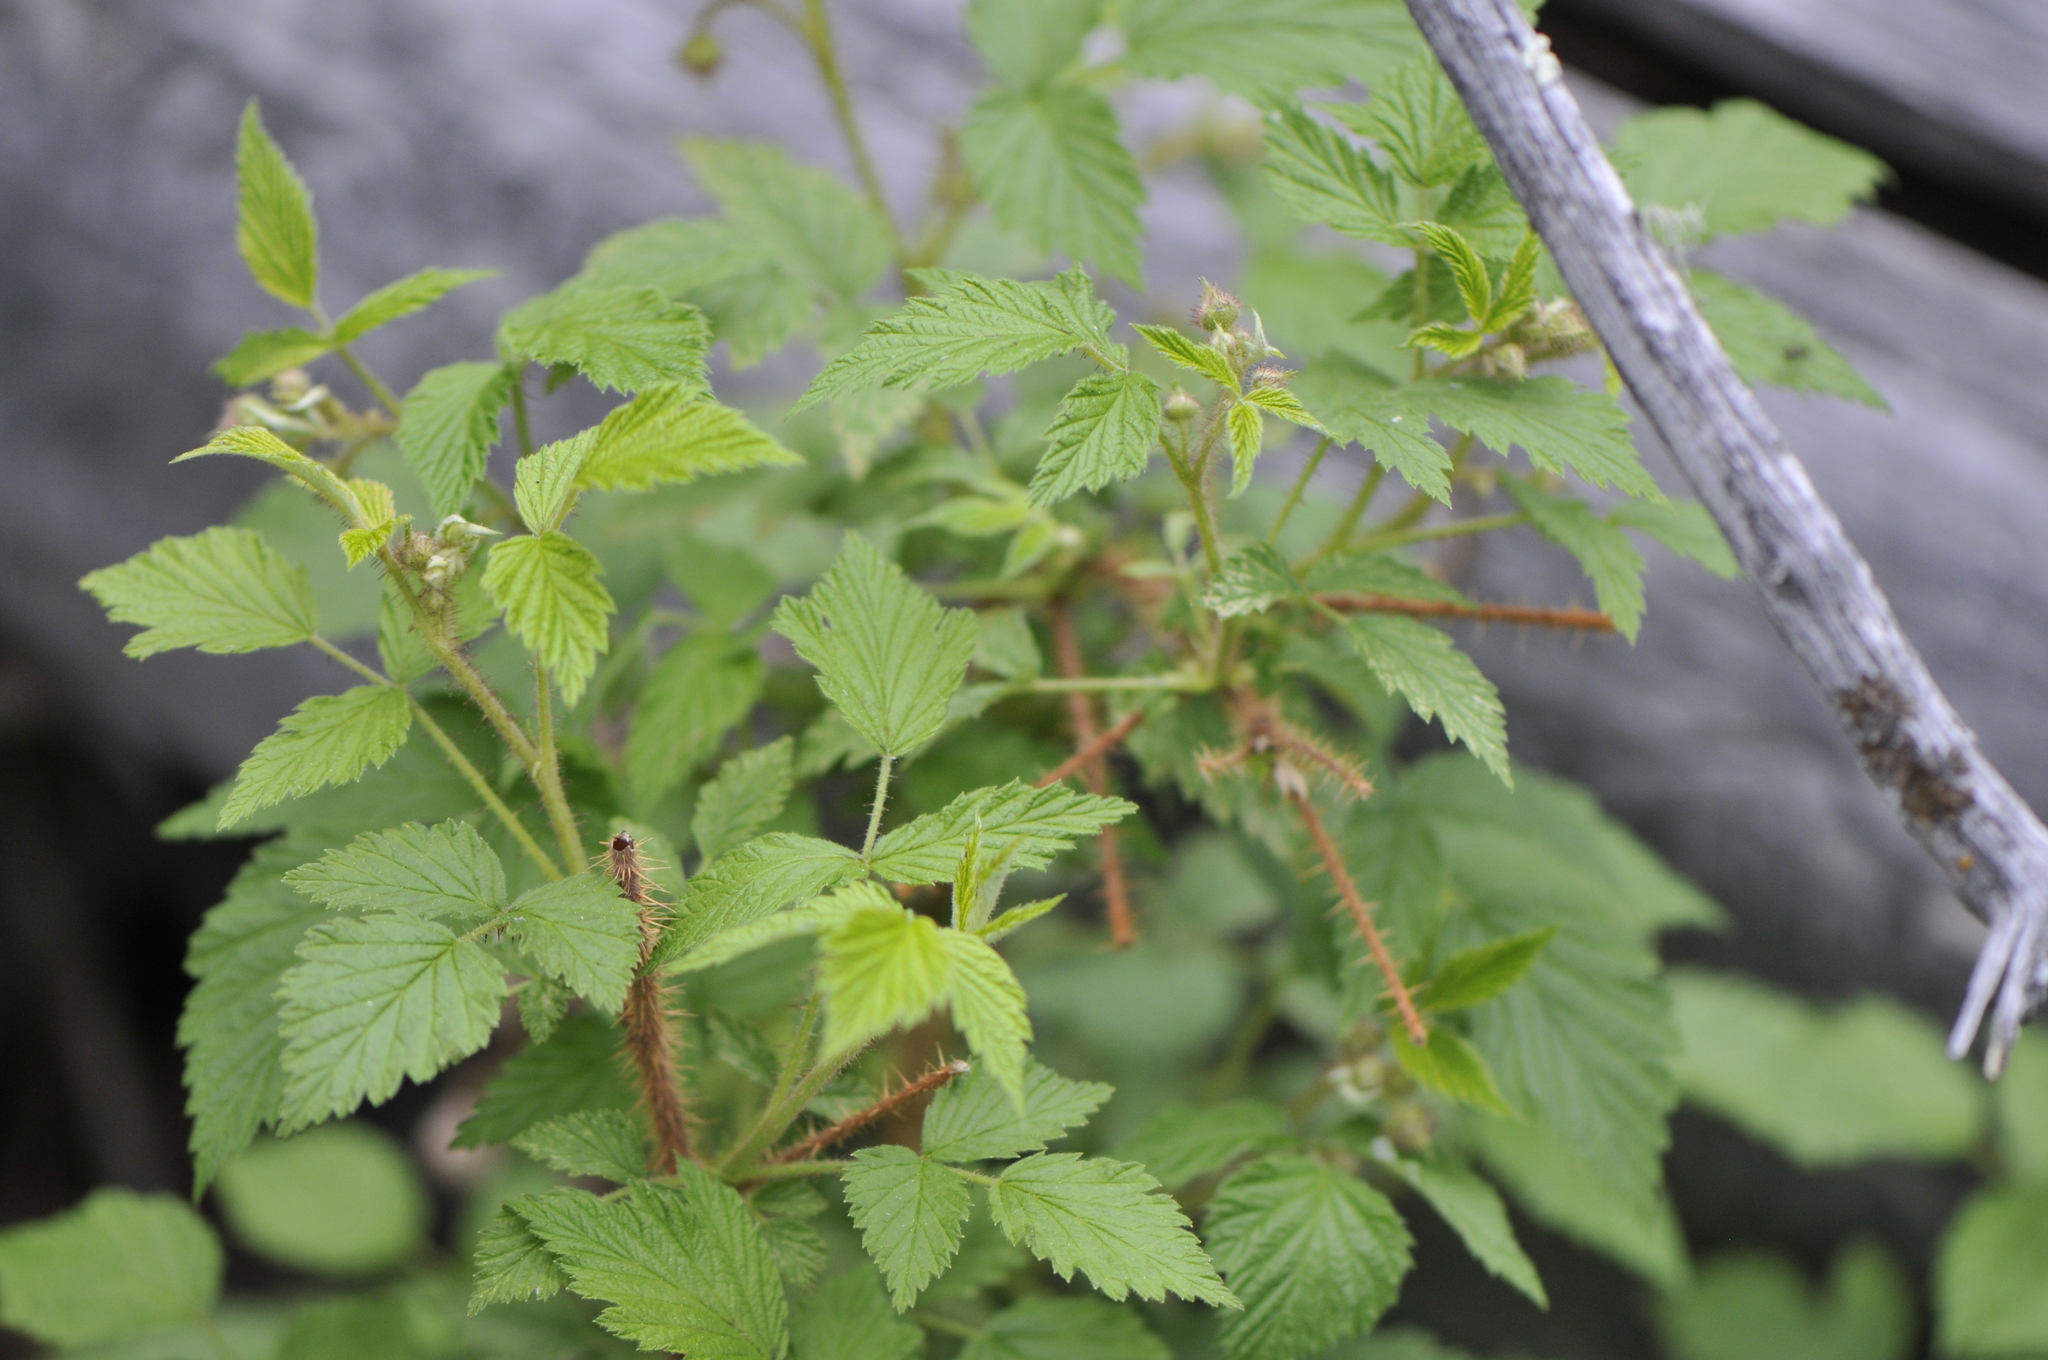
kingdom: Plantae
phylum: Tracheophyta
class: Magnoliopsida
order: Rosales
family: Rosaceae
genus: Rubus
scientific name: Rubus idaeus
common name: Raspberry
